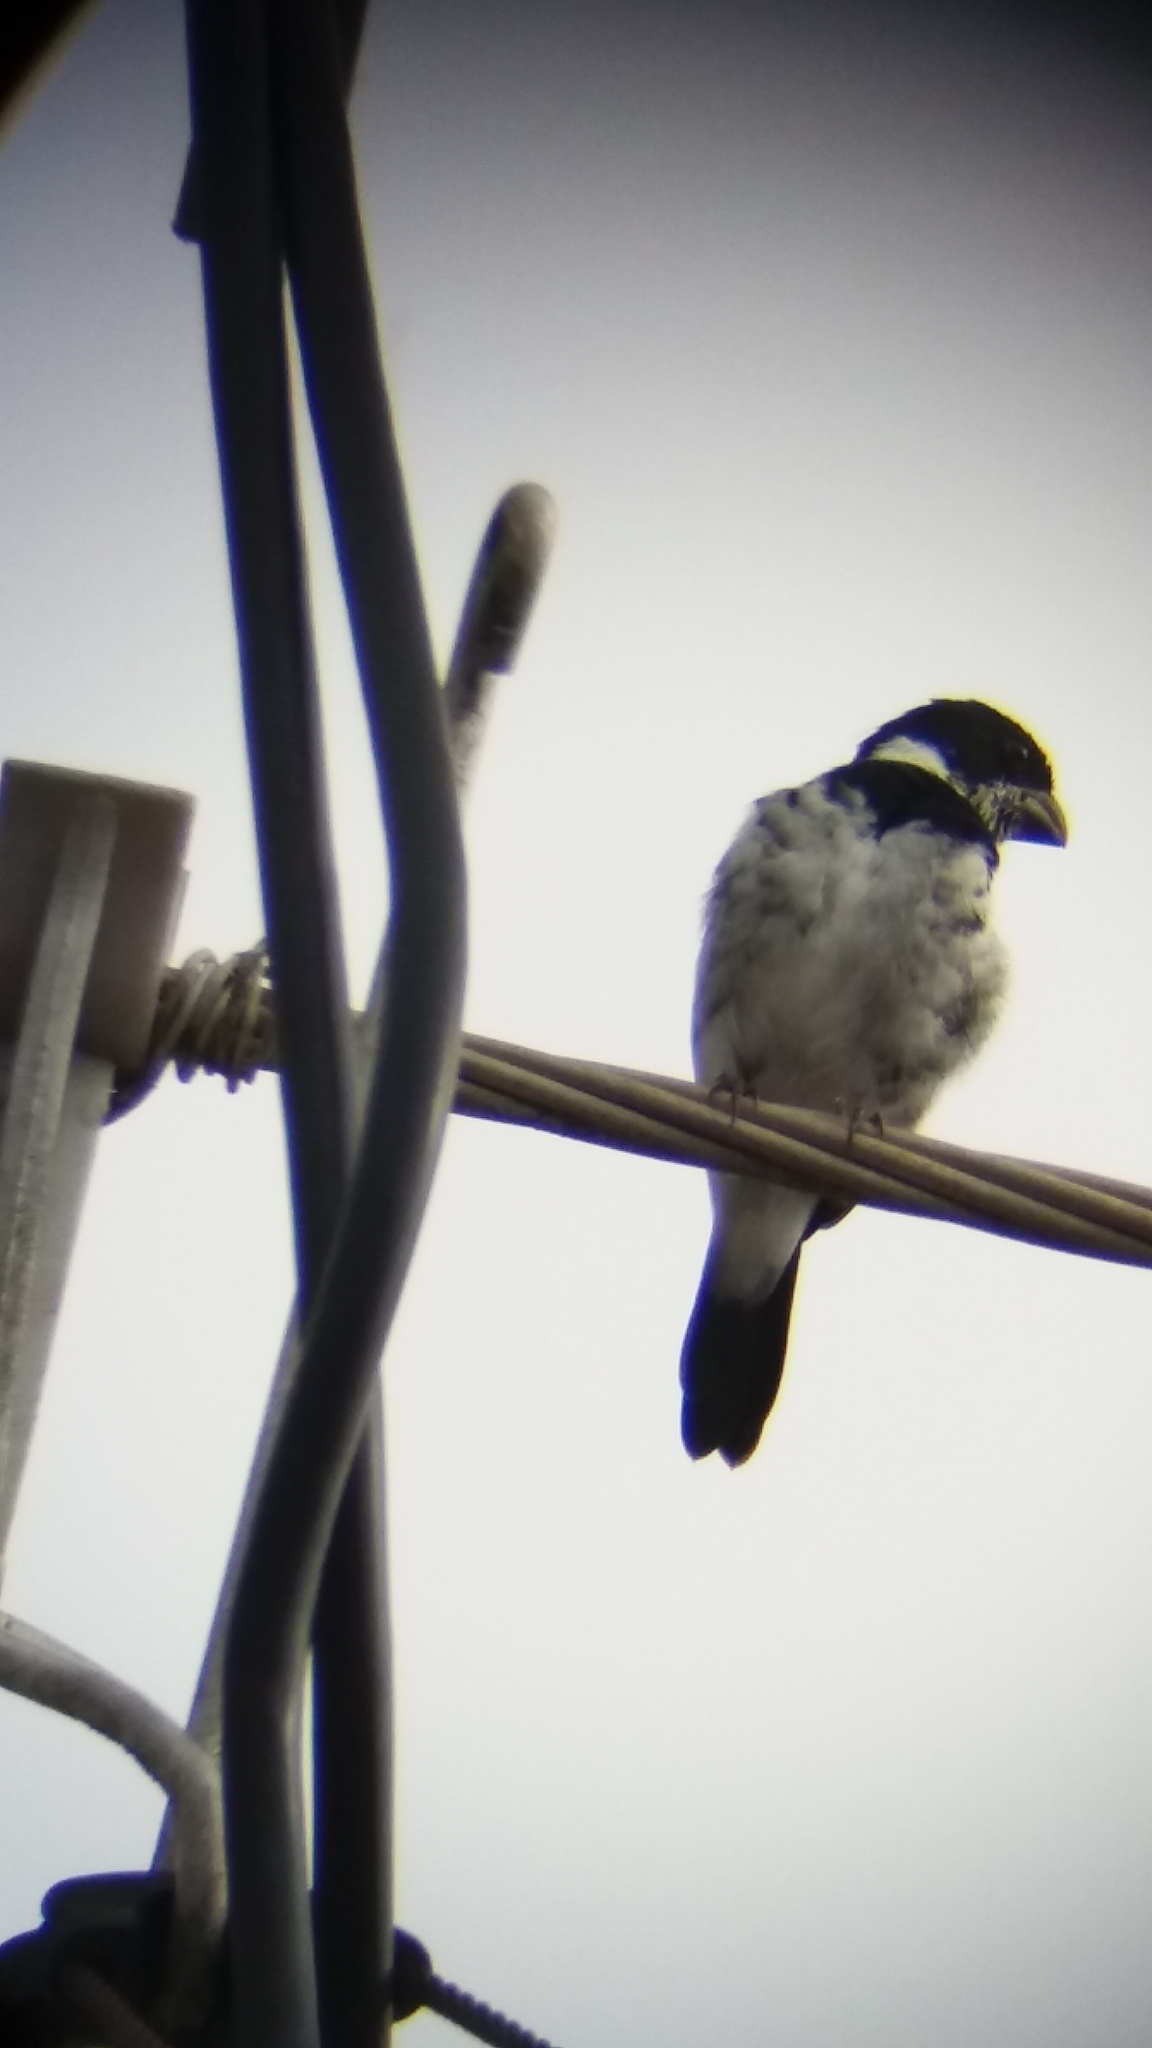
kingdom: Animalia
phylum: Chordata
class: Aves
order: Passeriformes
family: Thraupidae
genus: Sporophila
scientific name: Sporophila corvina
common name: Variable seedeater
